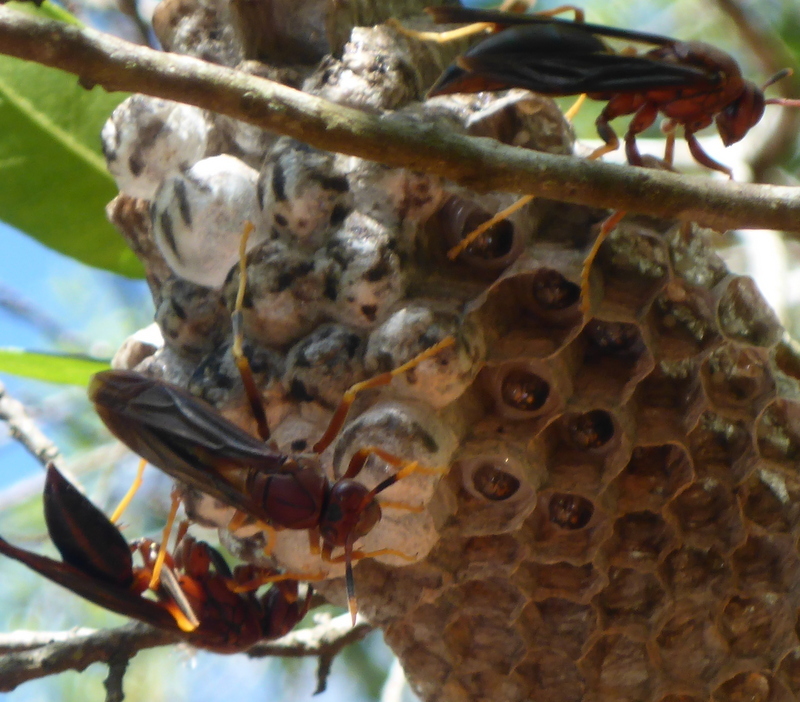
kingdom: Animalia
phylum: Arthropoda
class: Insecta
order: Hymenoptera
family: Eumenidae
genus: Polistes
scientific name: Polistes annularis
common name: Ringed paper wasp
